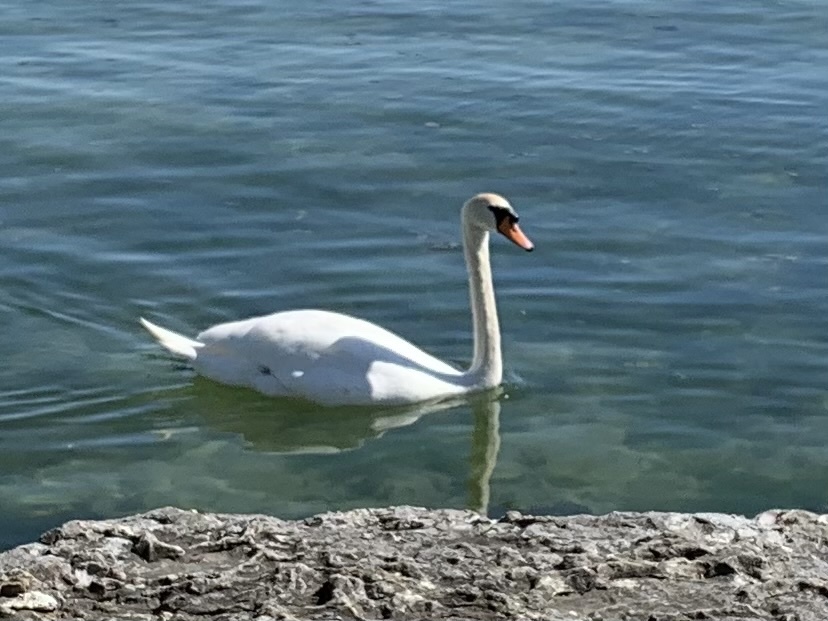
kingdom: Animalia
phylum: Chordata
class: Aves
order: Anseriformes
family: Anatidae
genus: Cygnus
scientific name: Cygnus olor
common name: Mute swan
